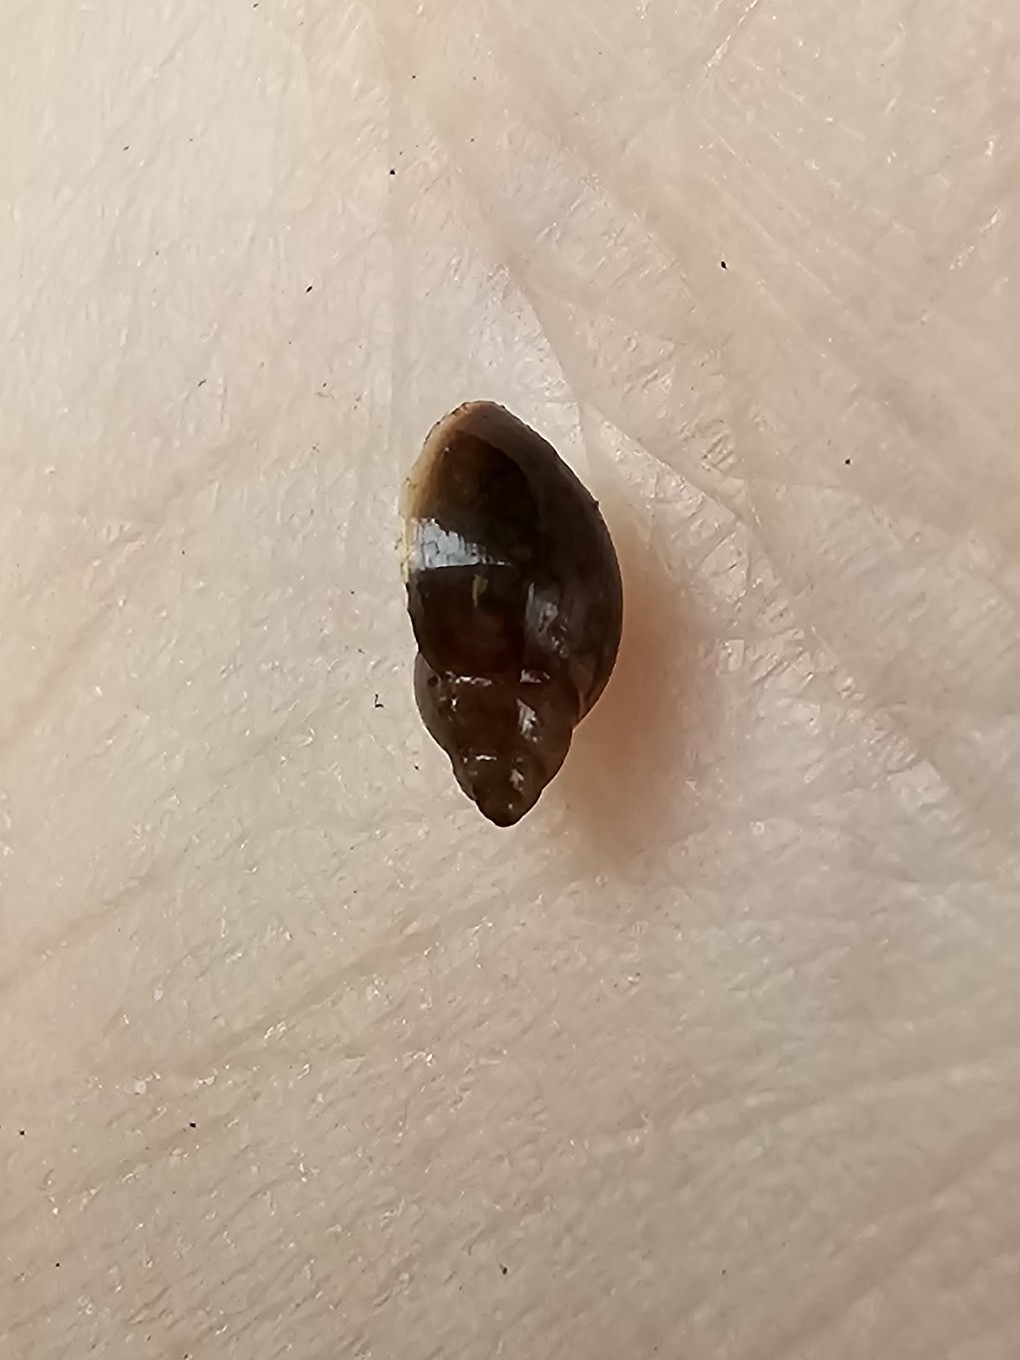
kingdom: Animalia
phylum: Mollusca
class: Gastropoda
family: Physidae
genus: Physella
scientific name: Physella acuta
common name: European physa
